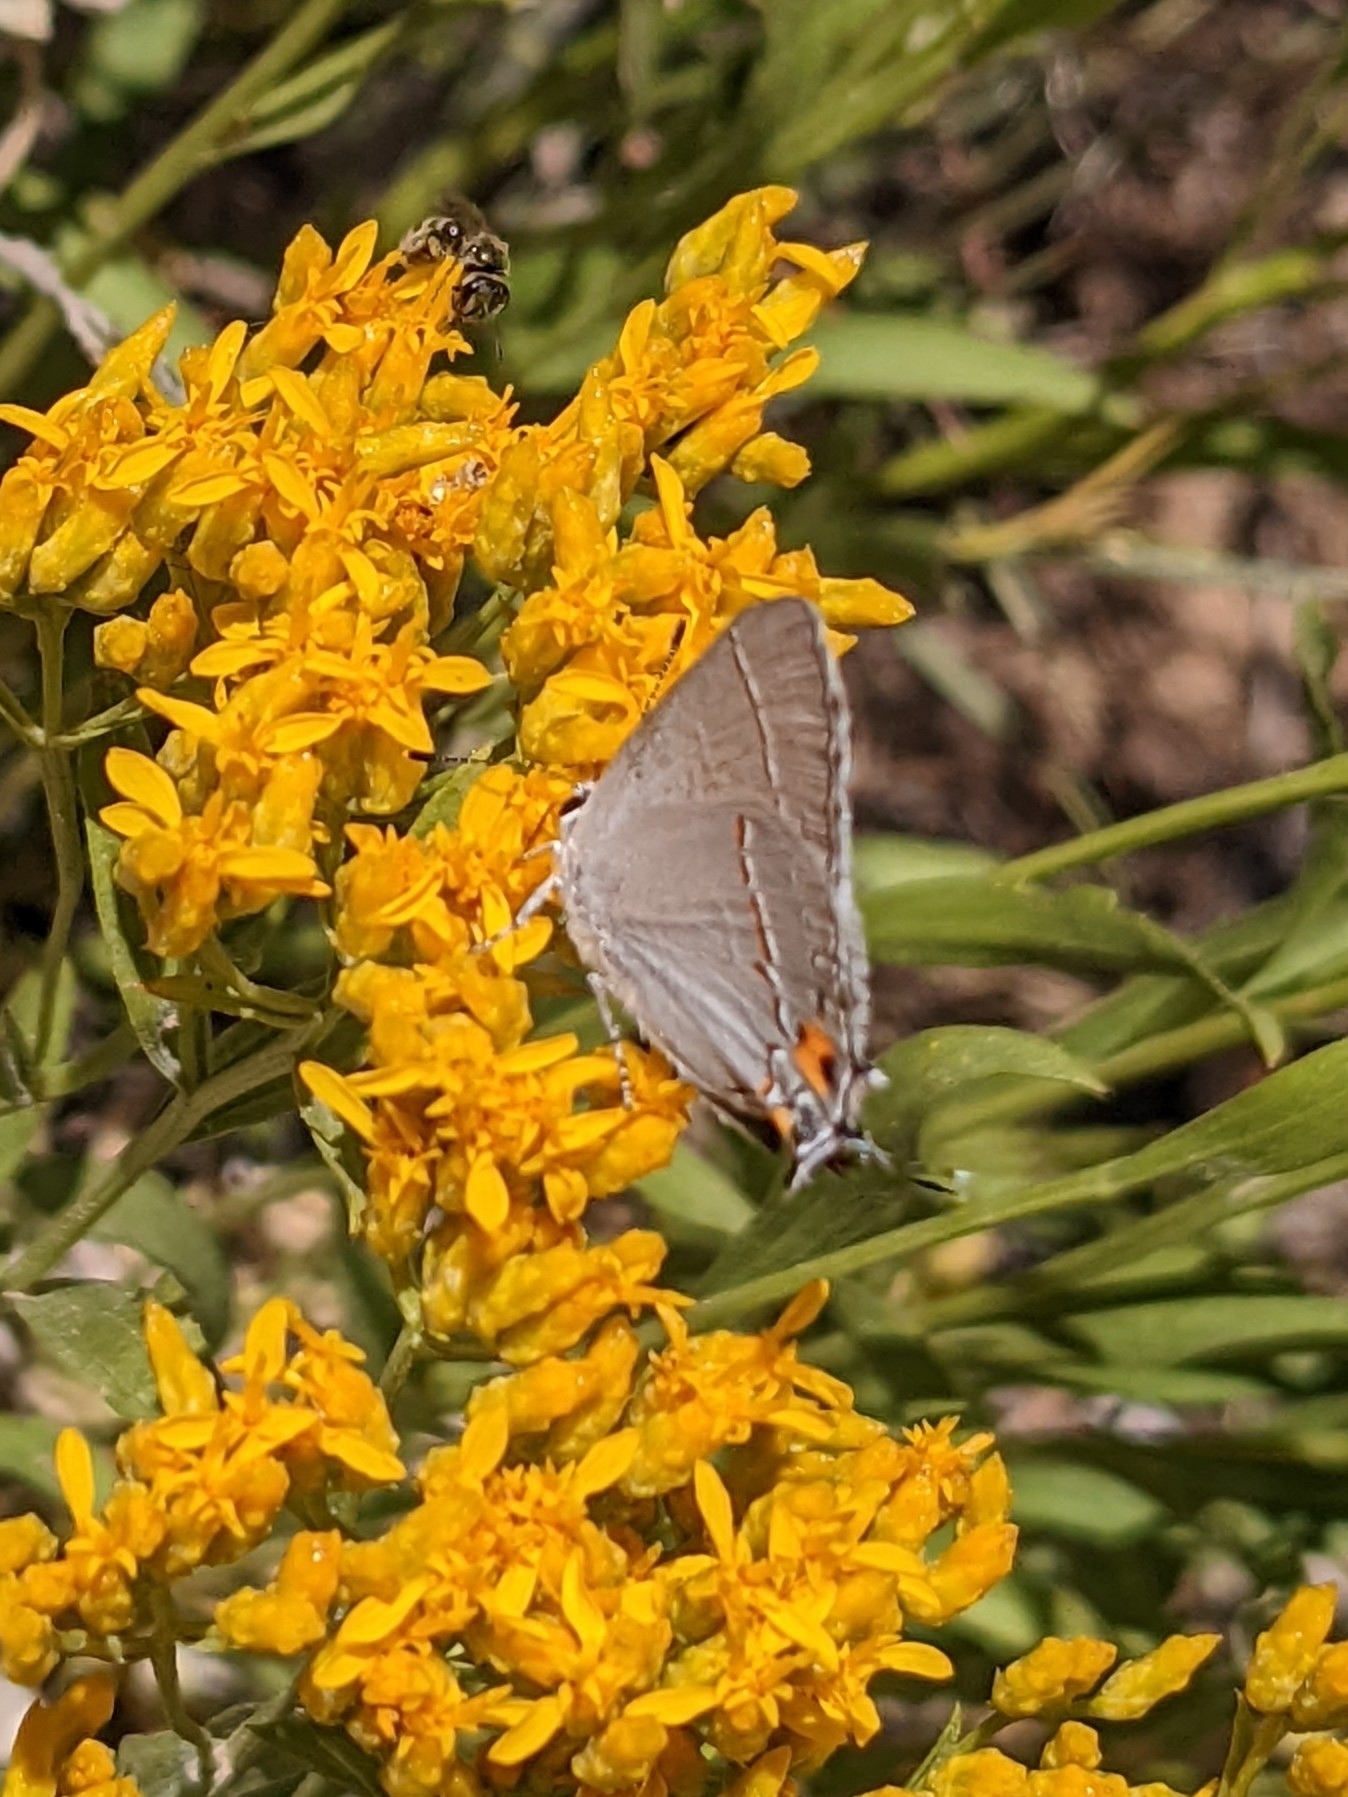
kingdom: Animalia
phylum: Arthropoda
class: Insecta
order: Lepidoptera
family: Lycaenidae
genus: Strymon
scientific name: Strymon melinus
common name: Gray hairstreak
